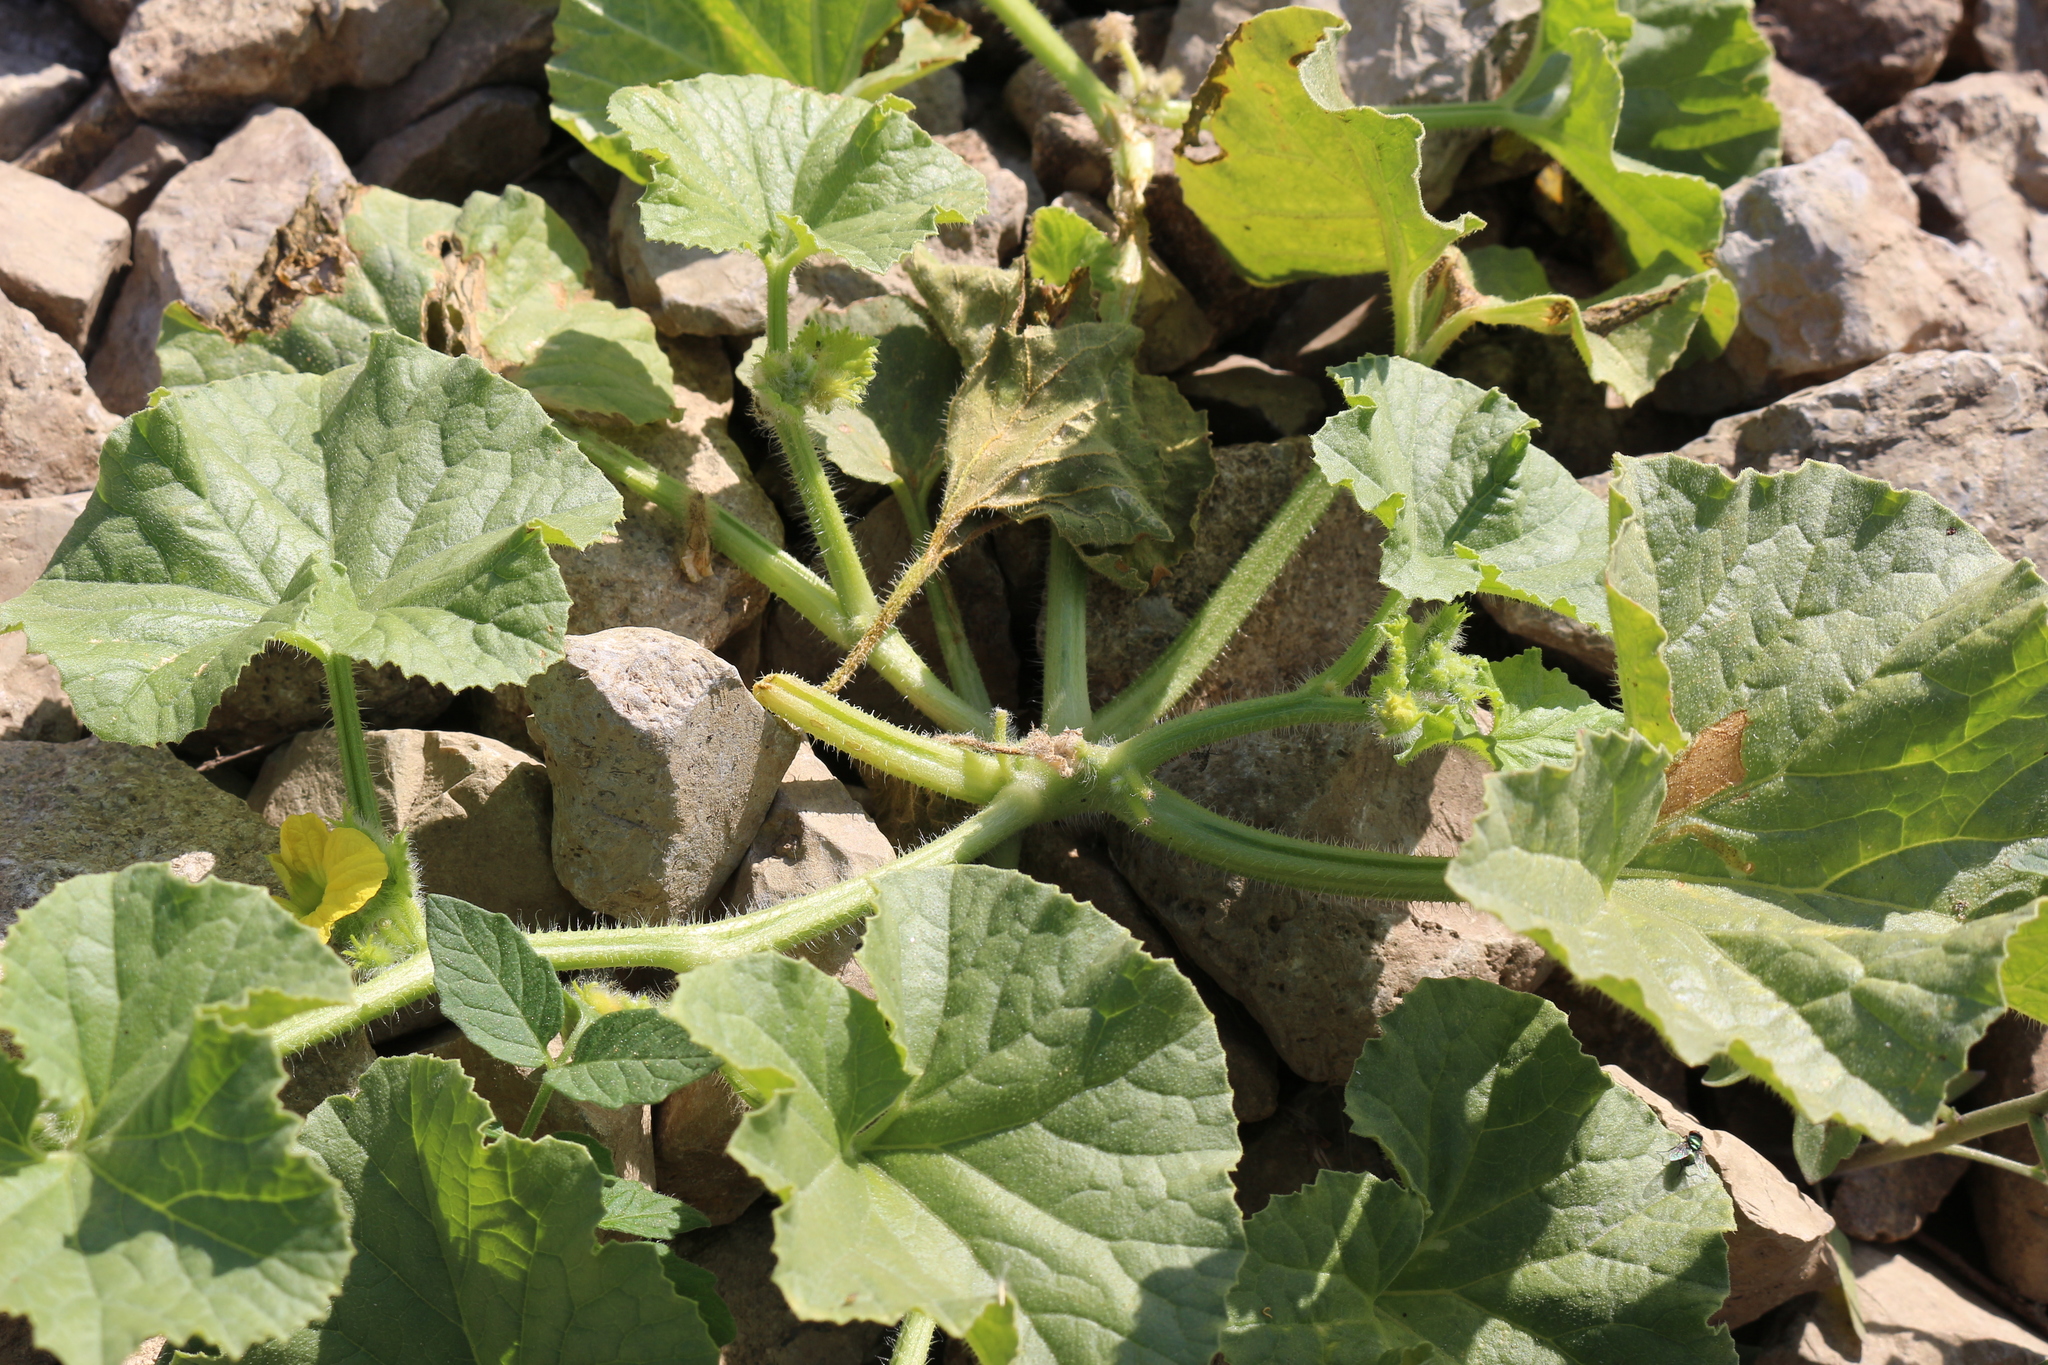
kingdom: Plantae
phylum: Tracheophyta
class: Magnoliopsida
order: Cucurbitales
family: Cucurbitaceae
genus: Cucumis
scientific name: Cucumis sativus
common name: Cucumber
